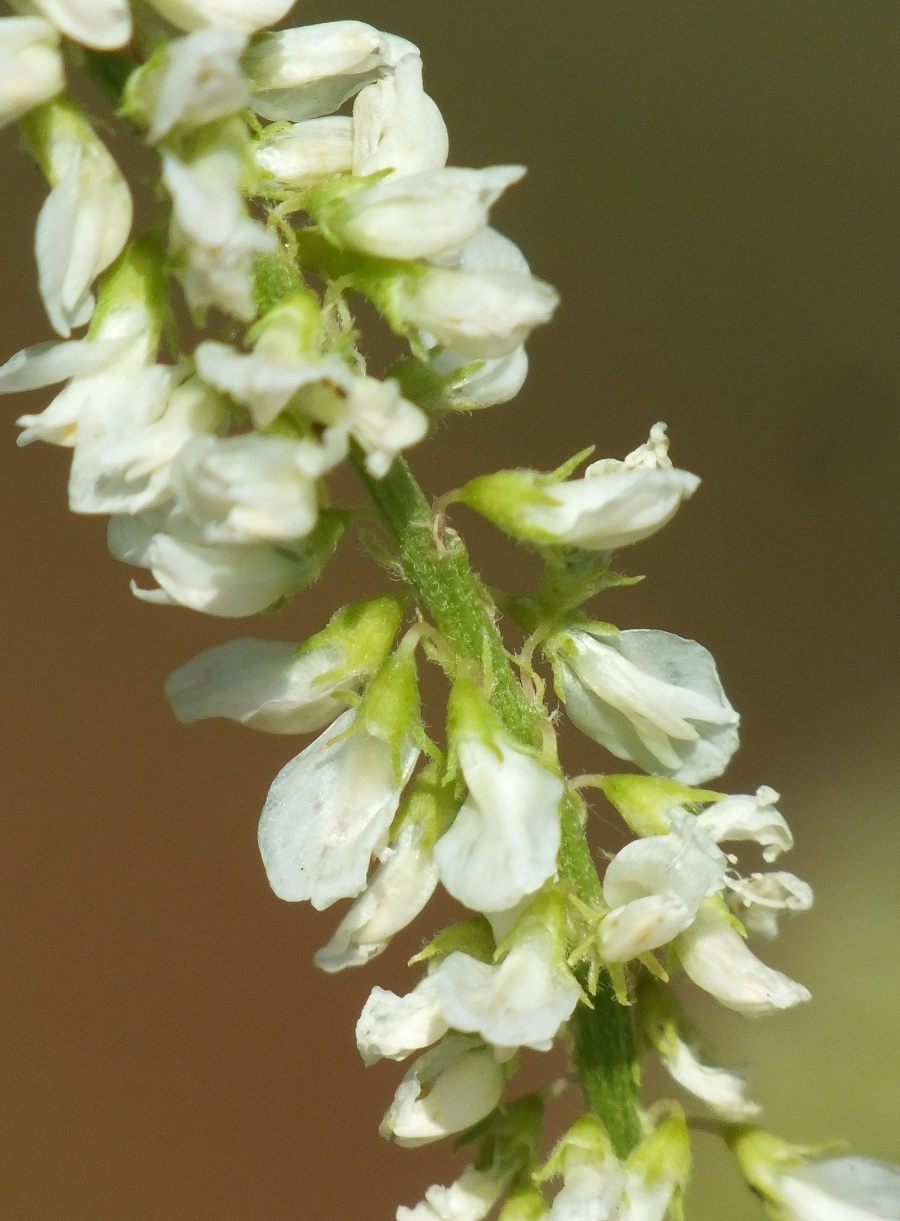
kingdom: Plantae
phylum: Tracheophyta
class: Magnoliopsida
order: Fabales
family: Fabaceae
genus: Melilotus
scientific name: Melilotus albus
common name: White melilot
